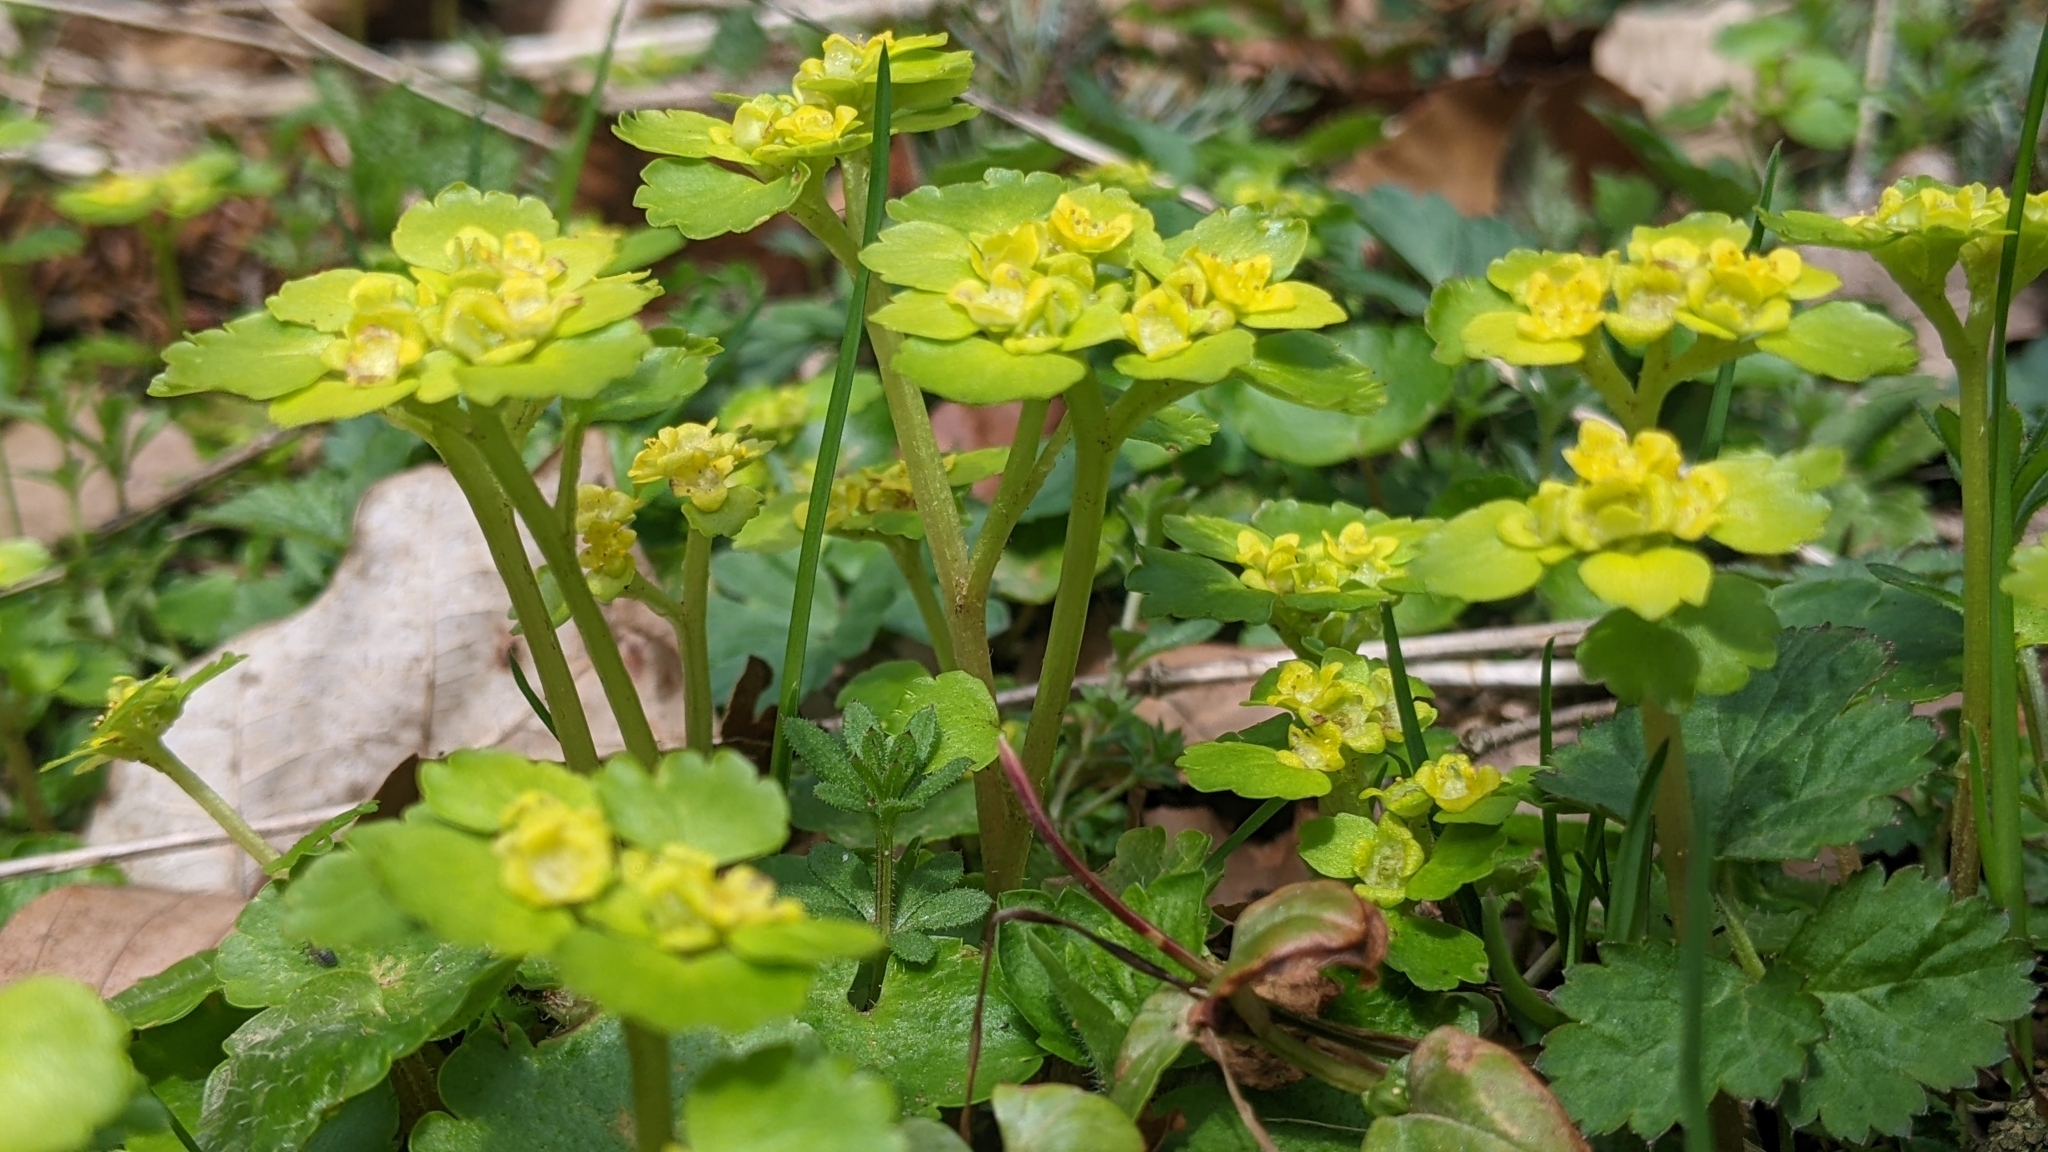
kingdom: Plantae
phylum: Tracheophyta
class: Magnoliopsida
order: Saxifragales
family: Saxifragaceae
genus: Chrysosplenium
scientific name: Chrysosplenium alternifolium
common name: Alternate-leaved golden-saxifrage
